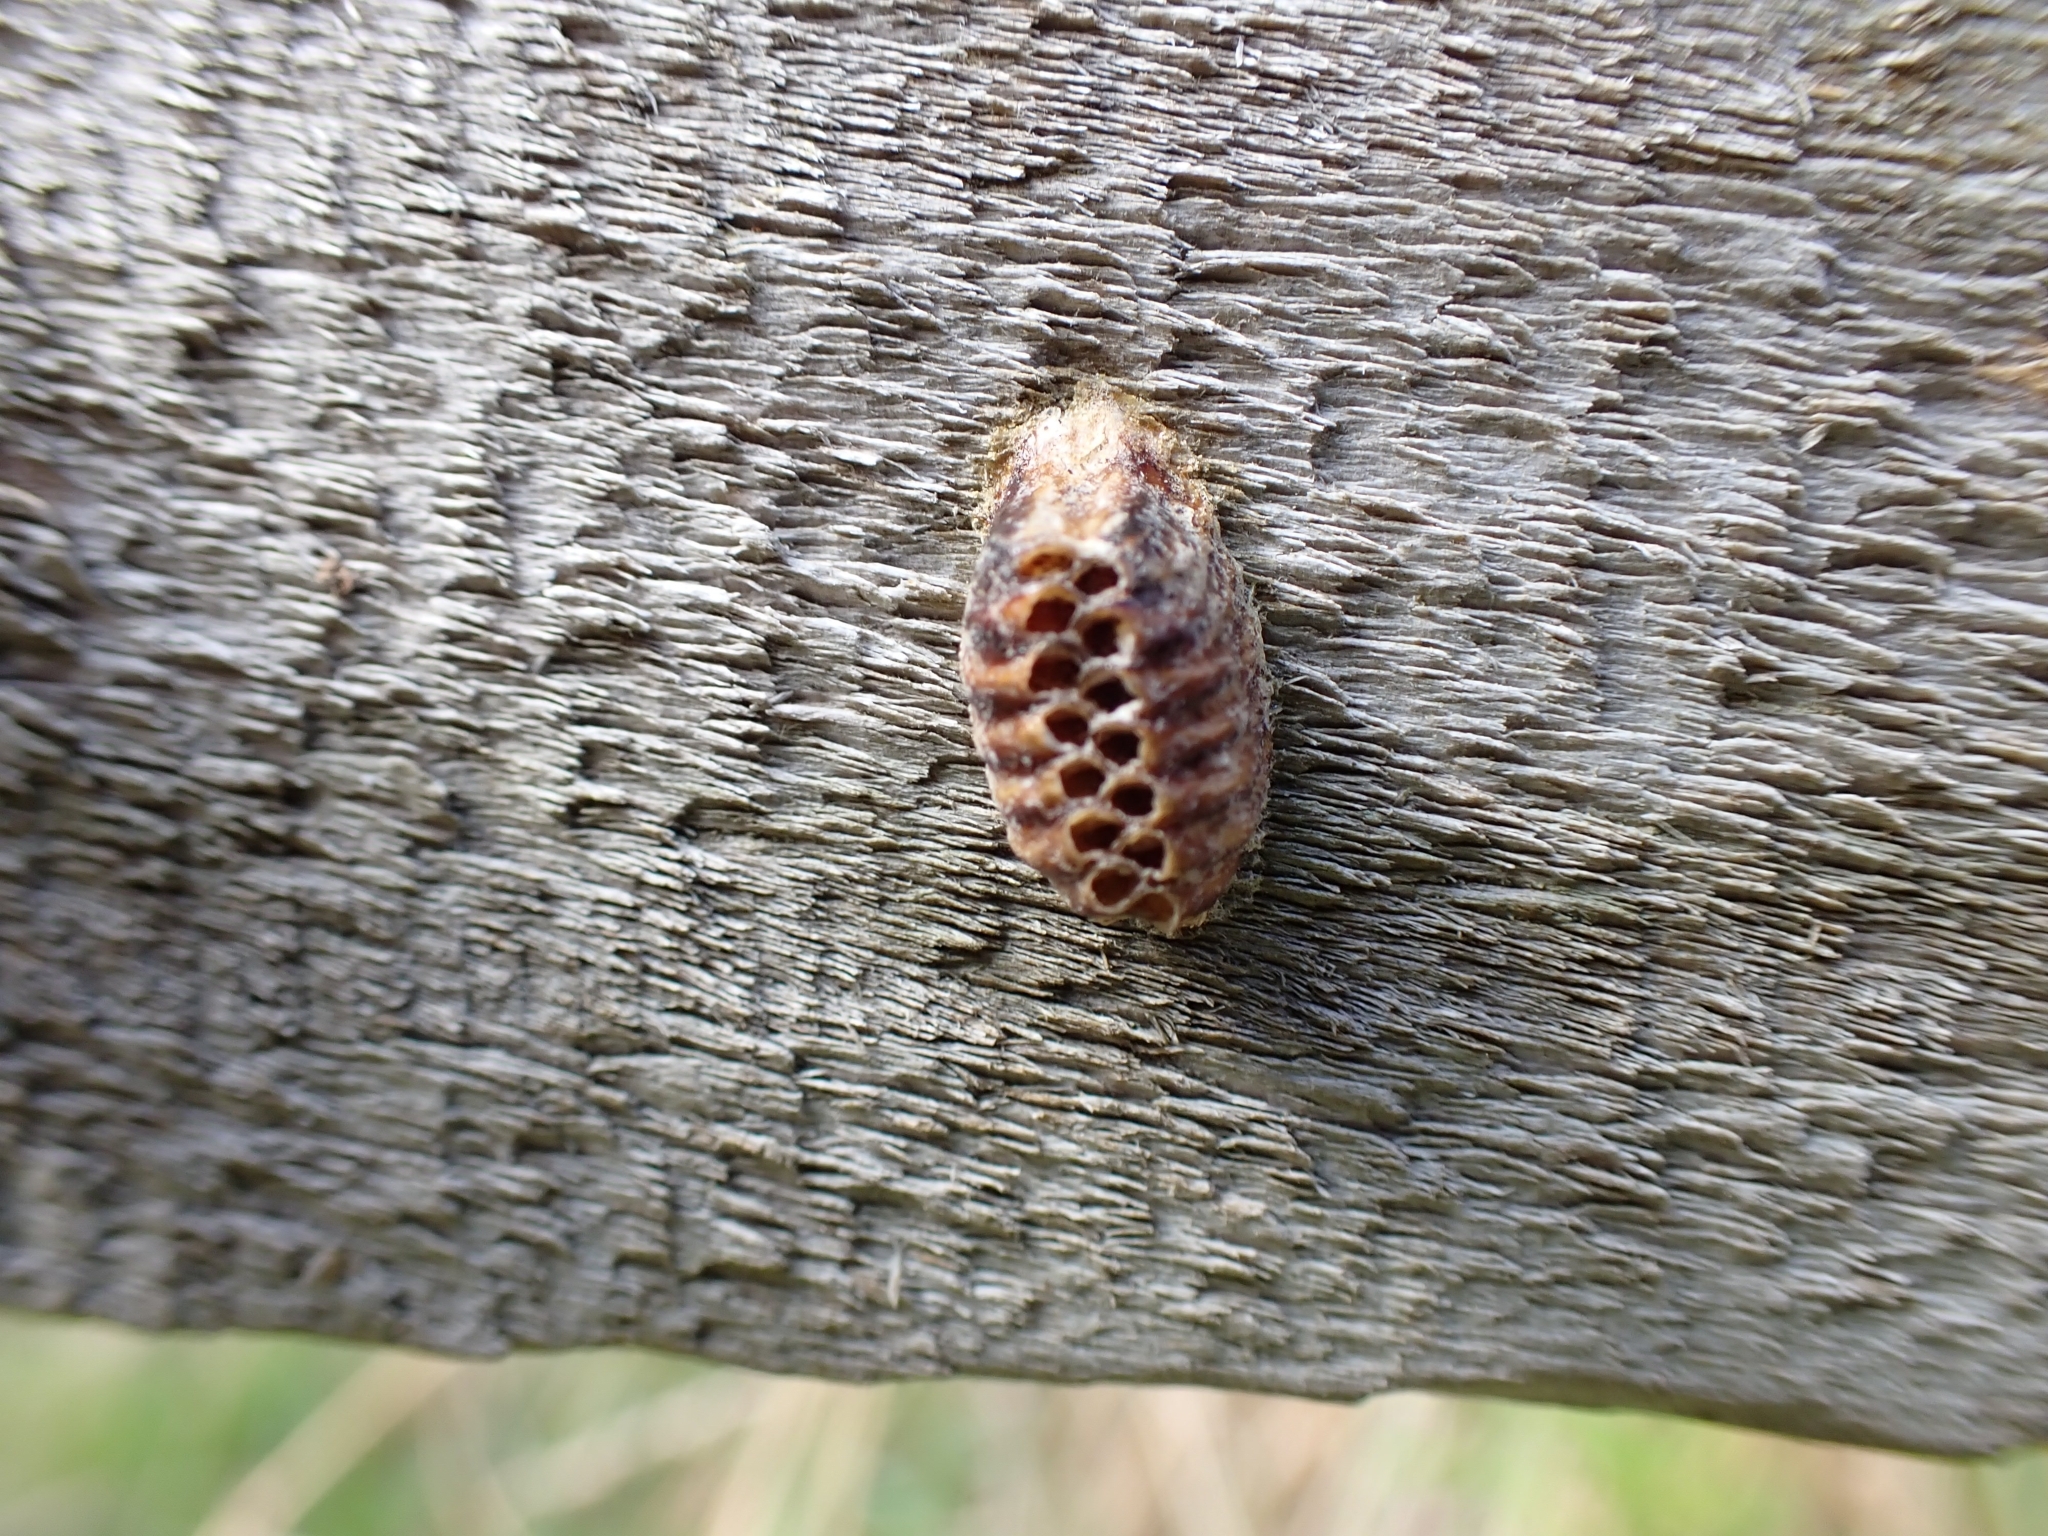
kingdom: Animalia
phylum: Arthropoda
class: Insecta
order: Mantodea
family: Mantidae
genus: Orthodera
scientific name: Orthodera novaezealandiae
